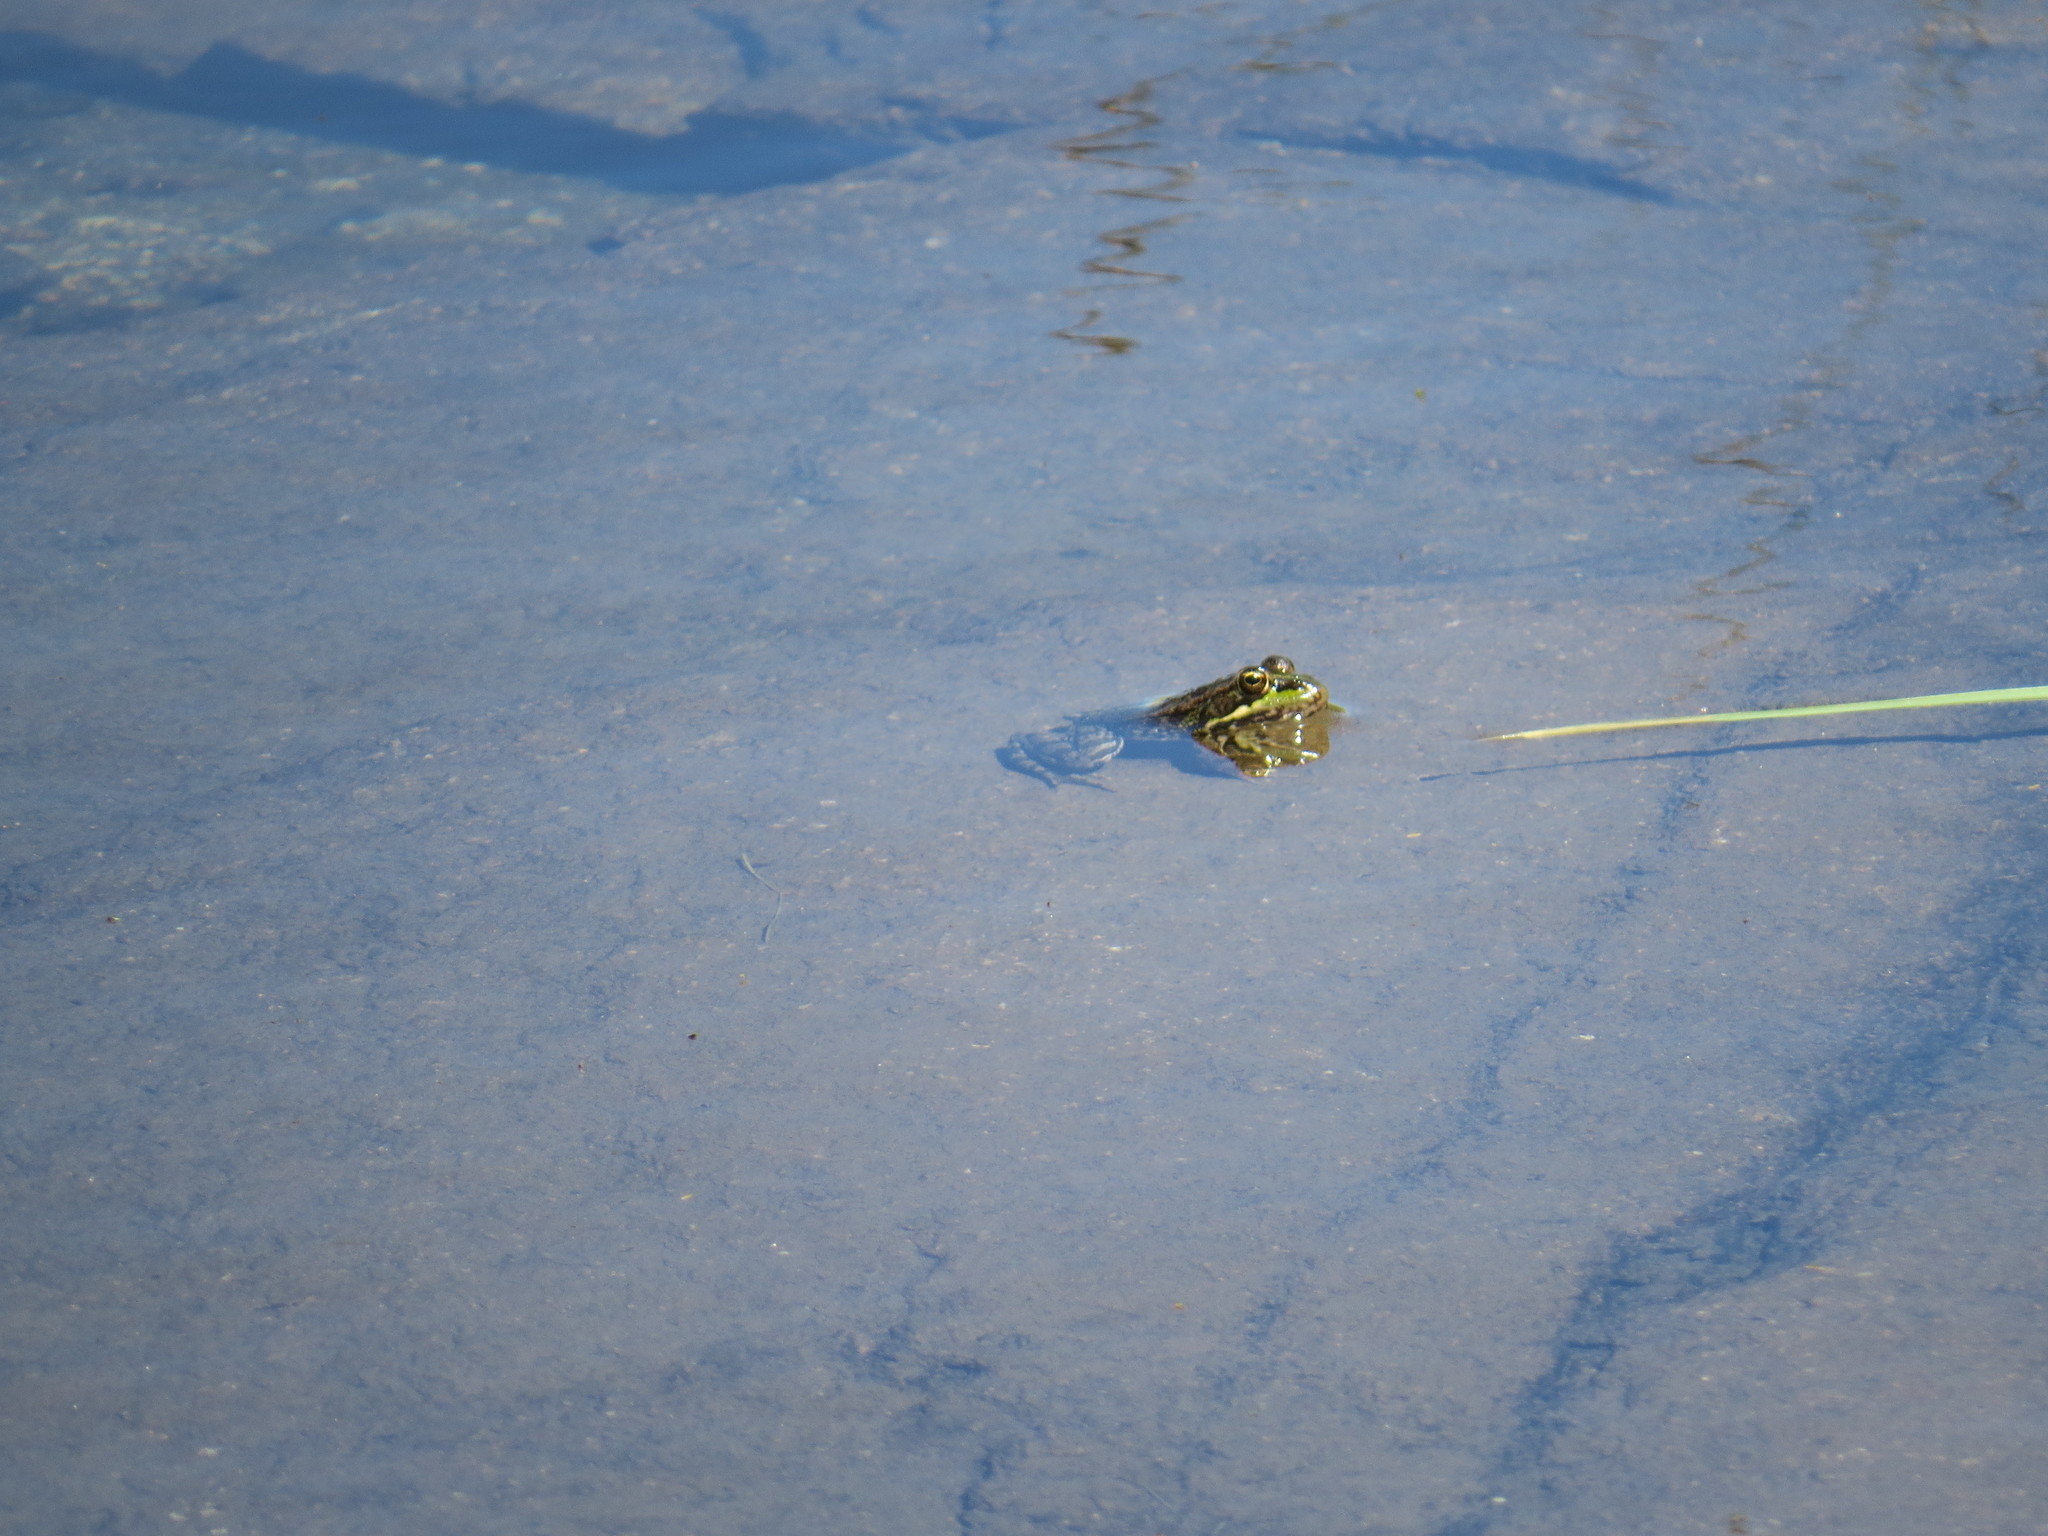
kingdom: Animalia
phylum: Chordata
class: Amphibia
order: Anura
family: Ranidae
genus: Pelophylax
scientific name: Pelophylax perezi
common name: Perez's frog
